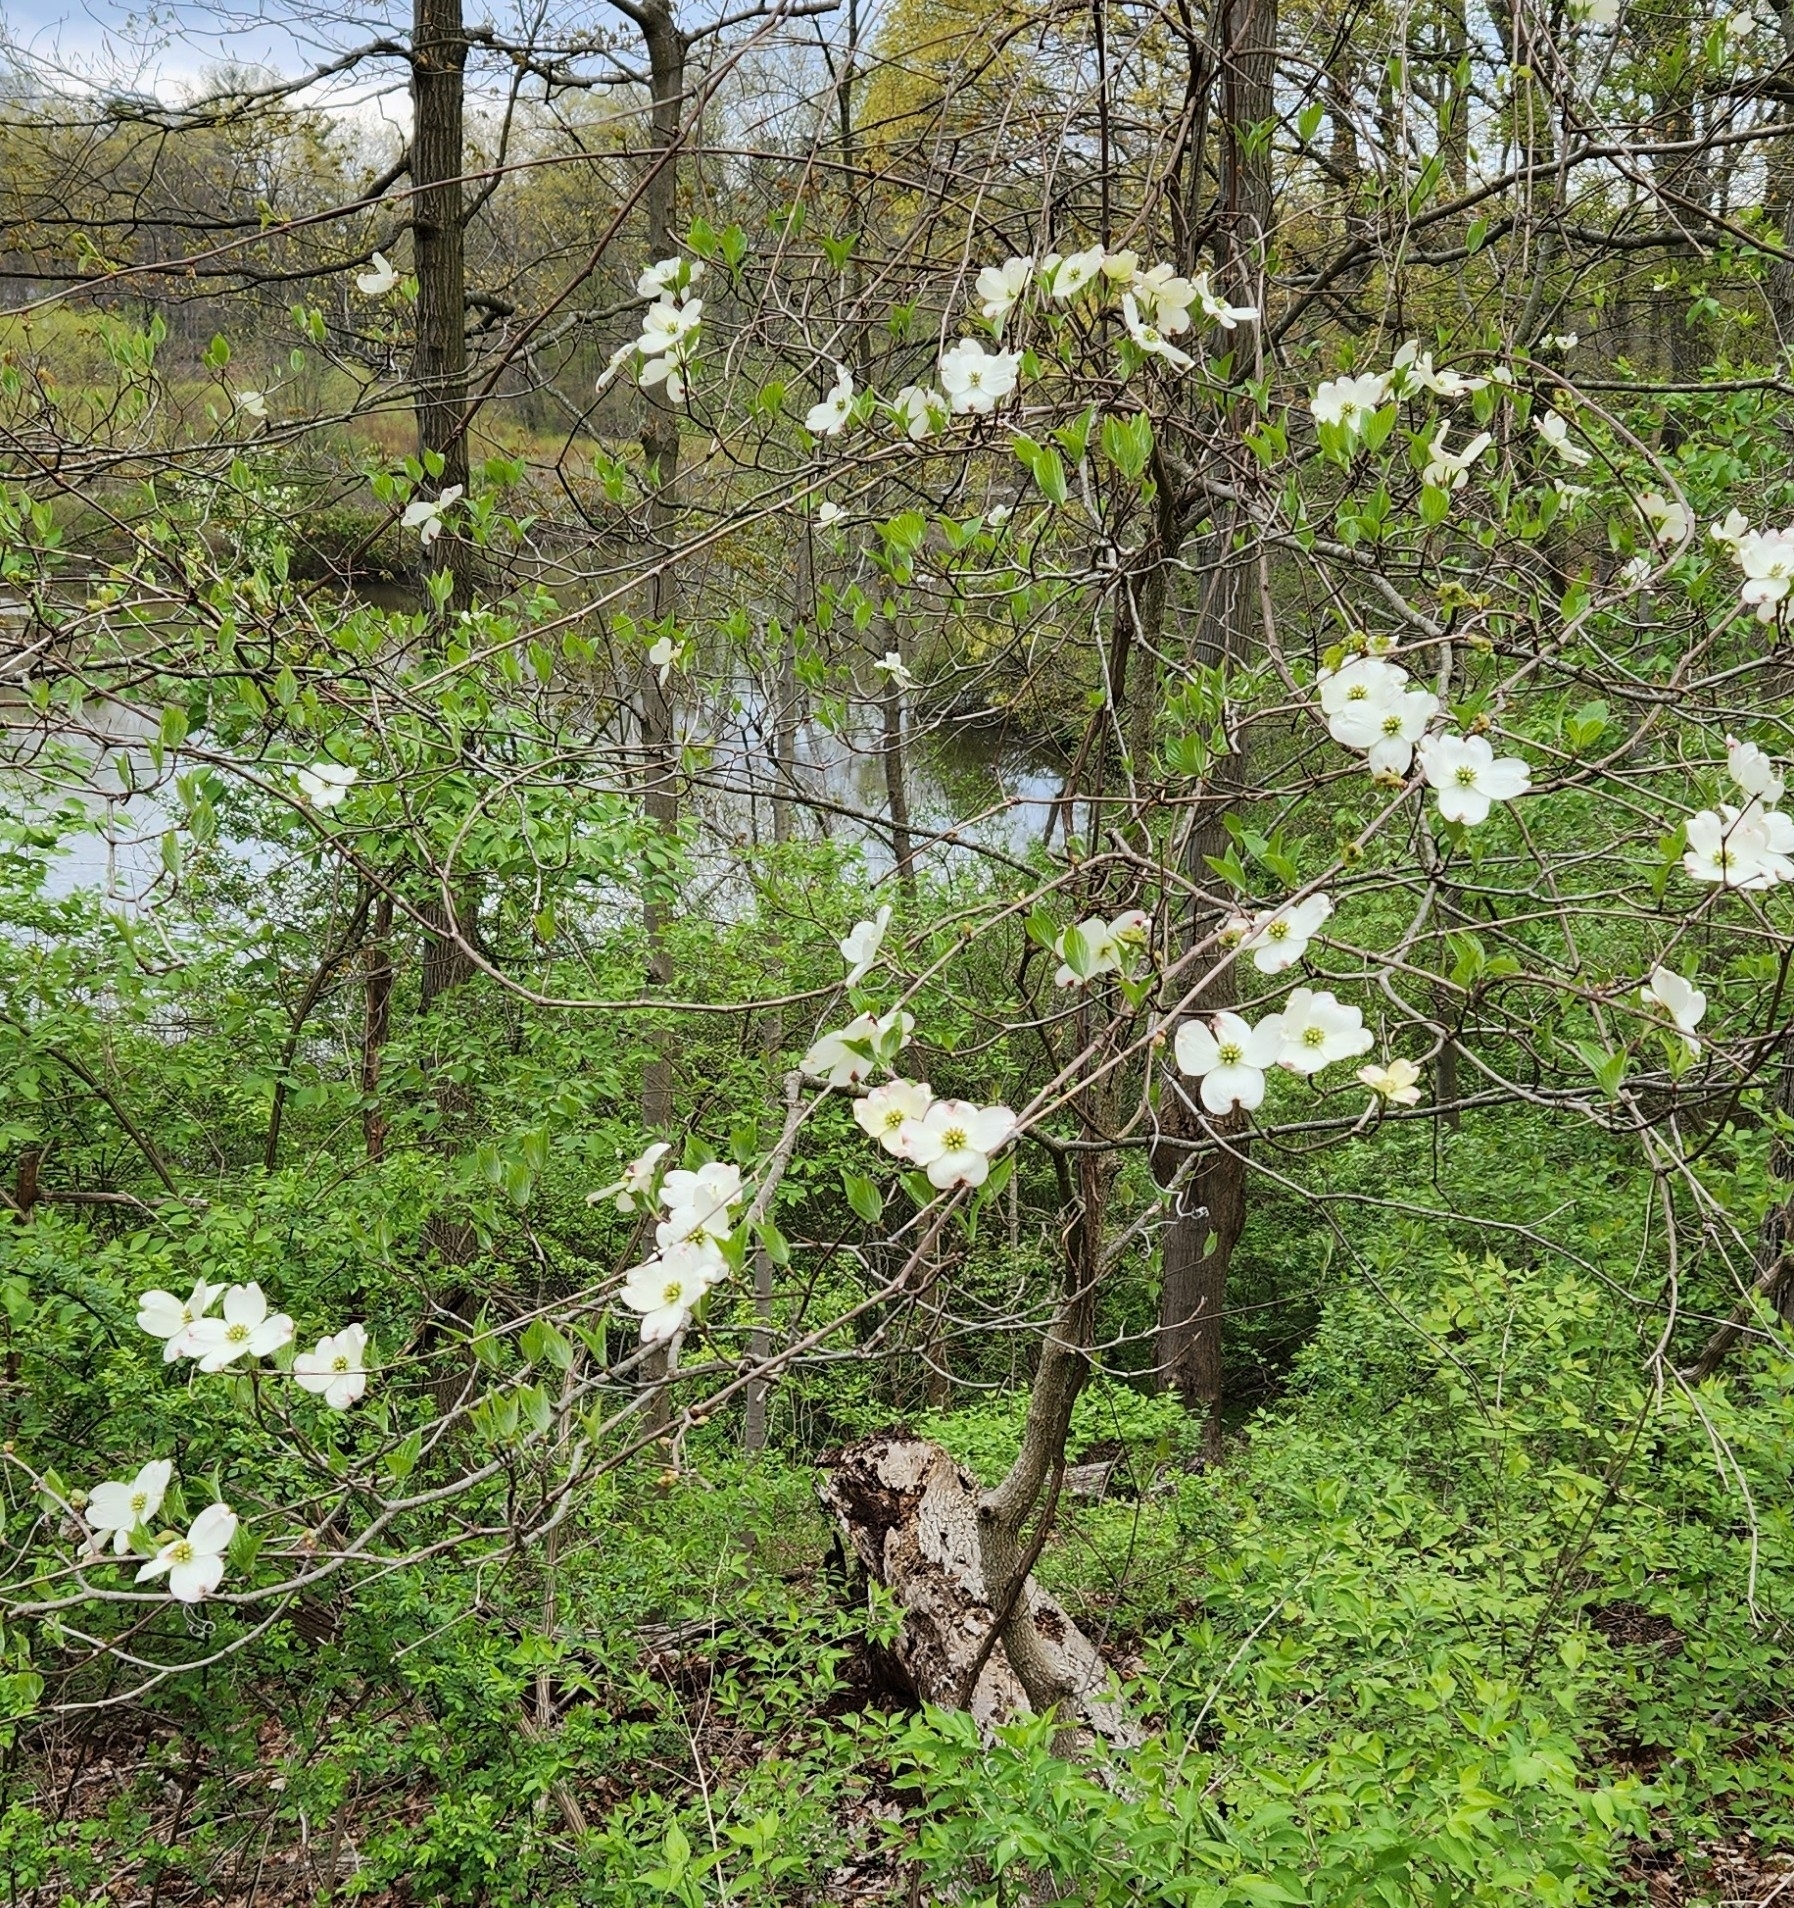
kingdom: Plantae
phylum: Tracheophyta
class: Magnoliopsida
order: Cornales
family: Cornaceae
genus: Cornus
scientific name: Cornus florida
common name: Flowering dogwood
